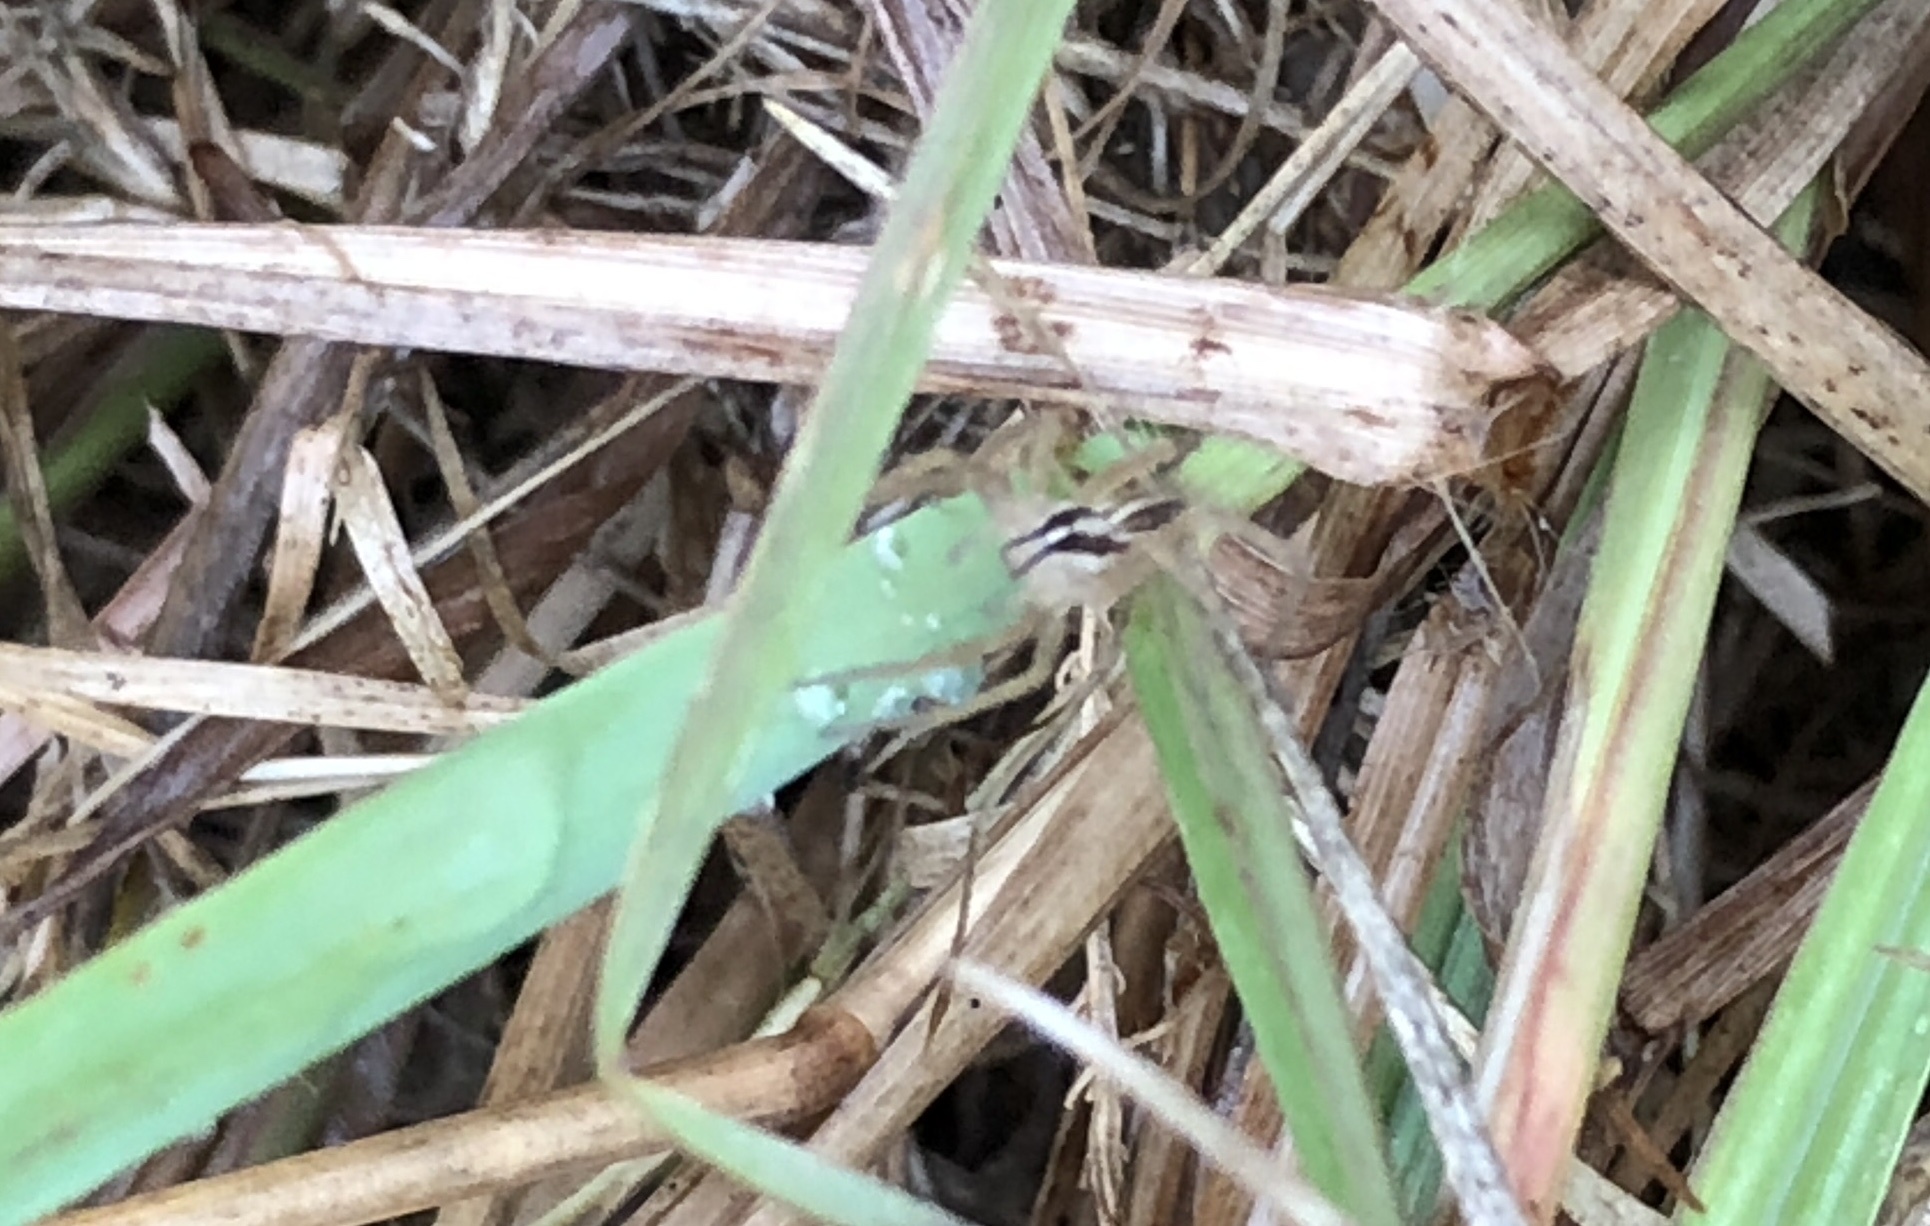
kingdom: Animalia
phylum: Arthropoda
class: Arachnida
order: Araneae
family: Lycosidae
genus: Rabidosa
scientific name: Rabidosa
